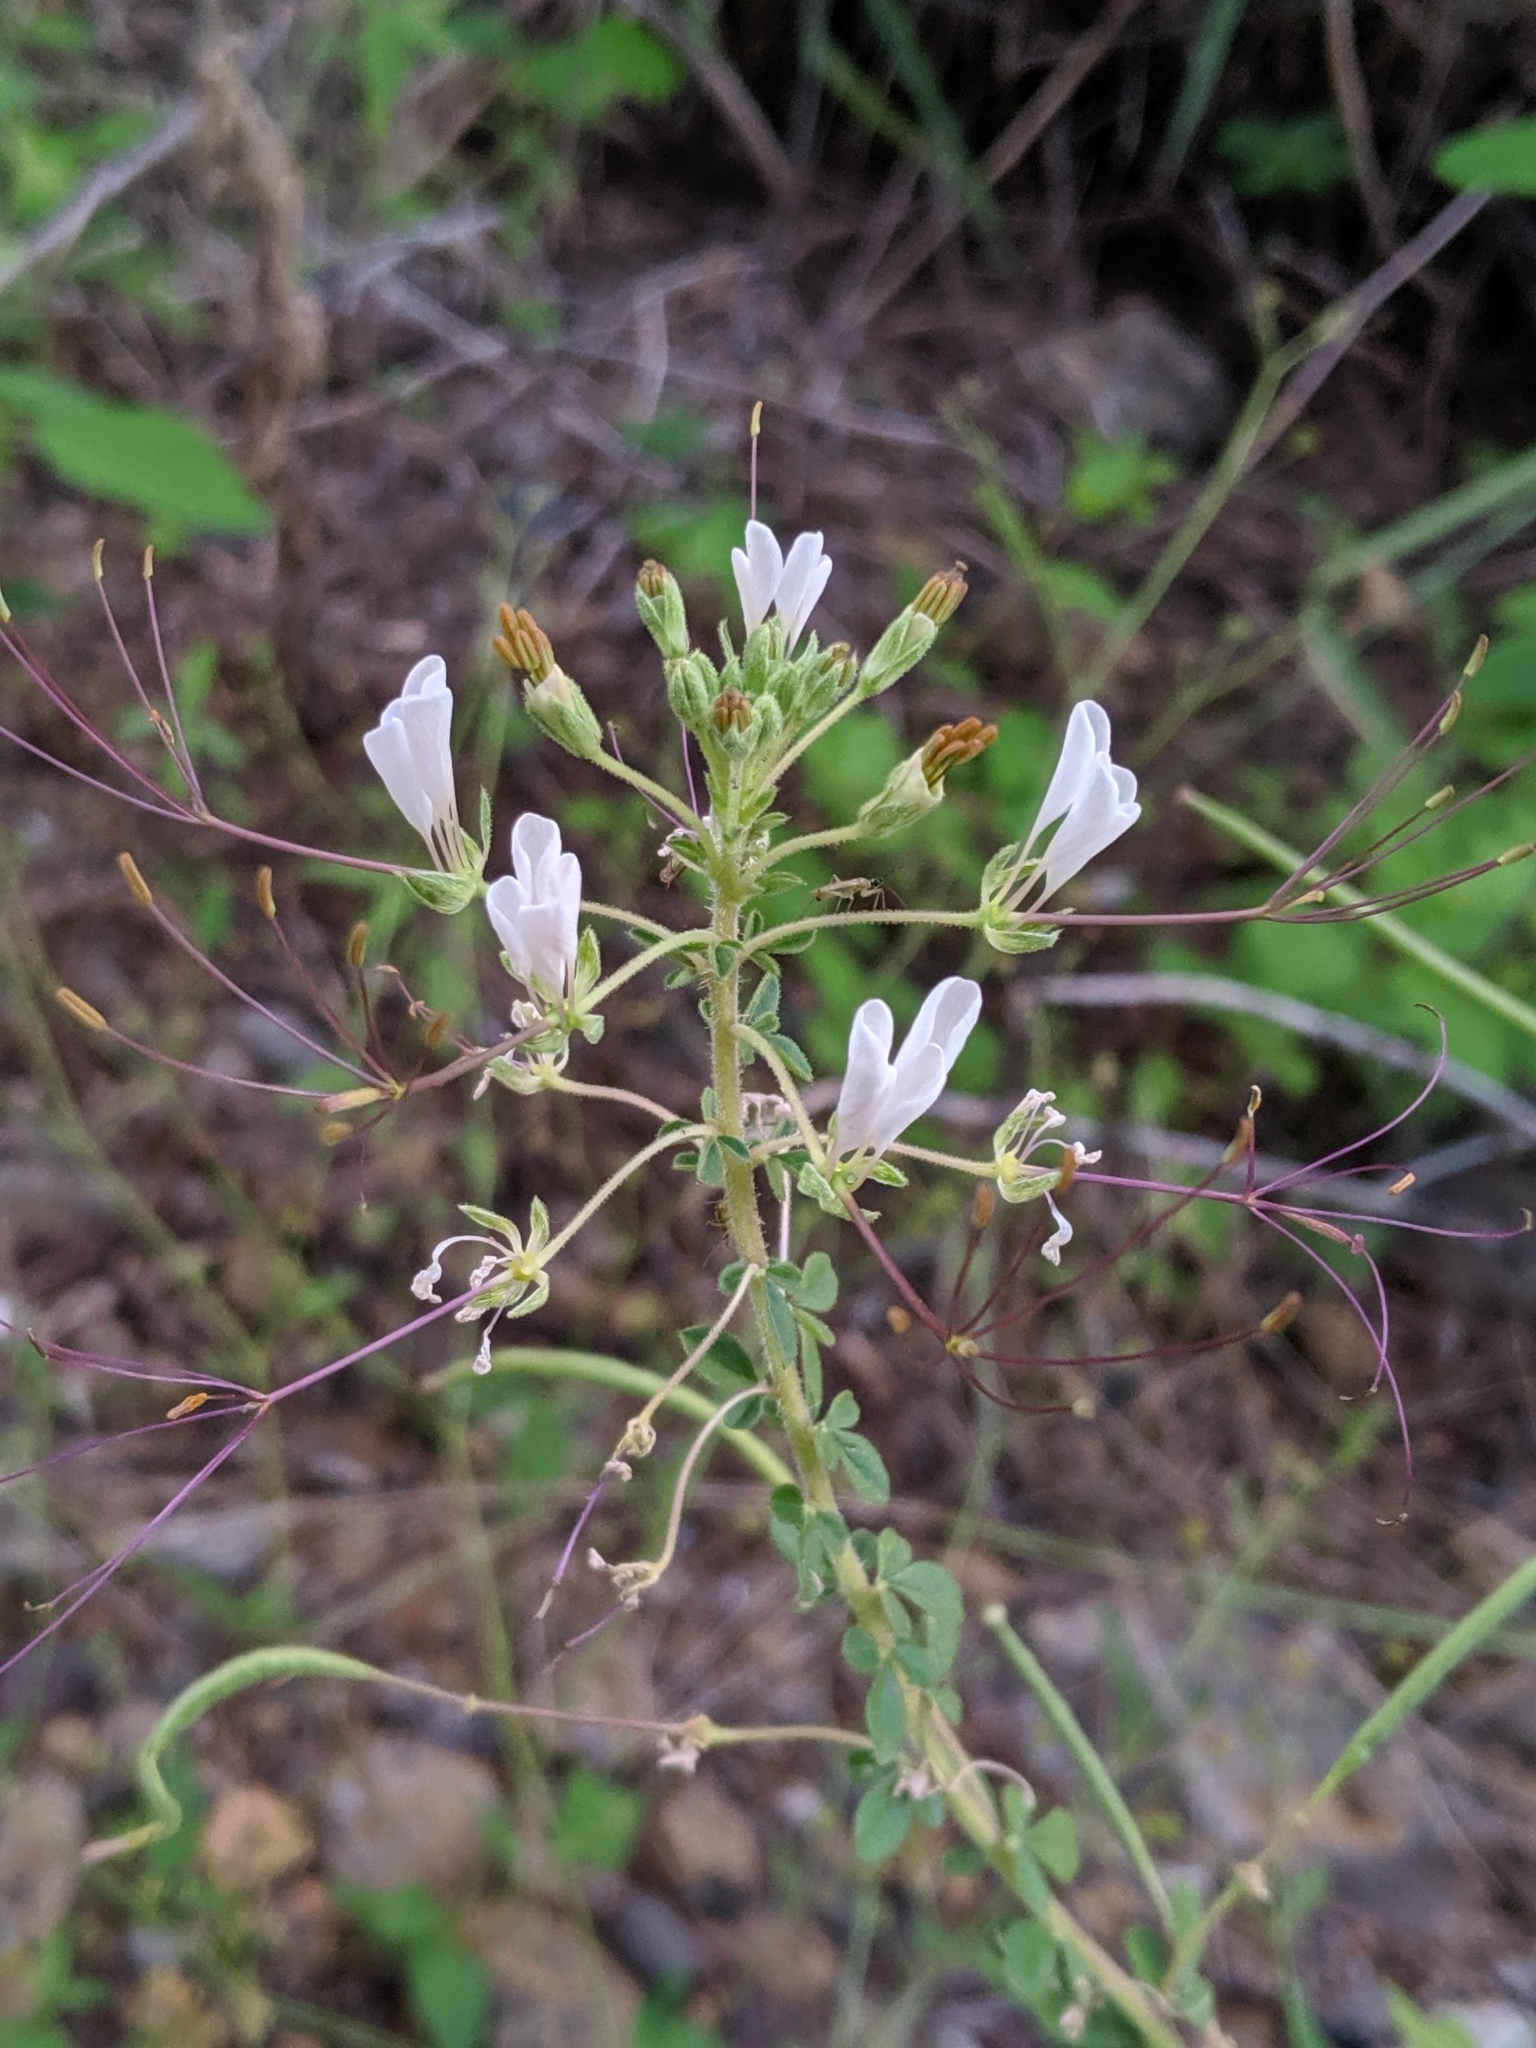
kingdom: Plantae
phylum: Tracheophyta
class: Magnoliopsida
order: Brassicales
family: Cleomaceae
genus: Gynandropsis
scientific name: Gynandropsis gynandra
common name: Spiderwisp
